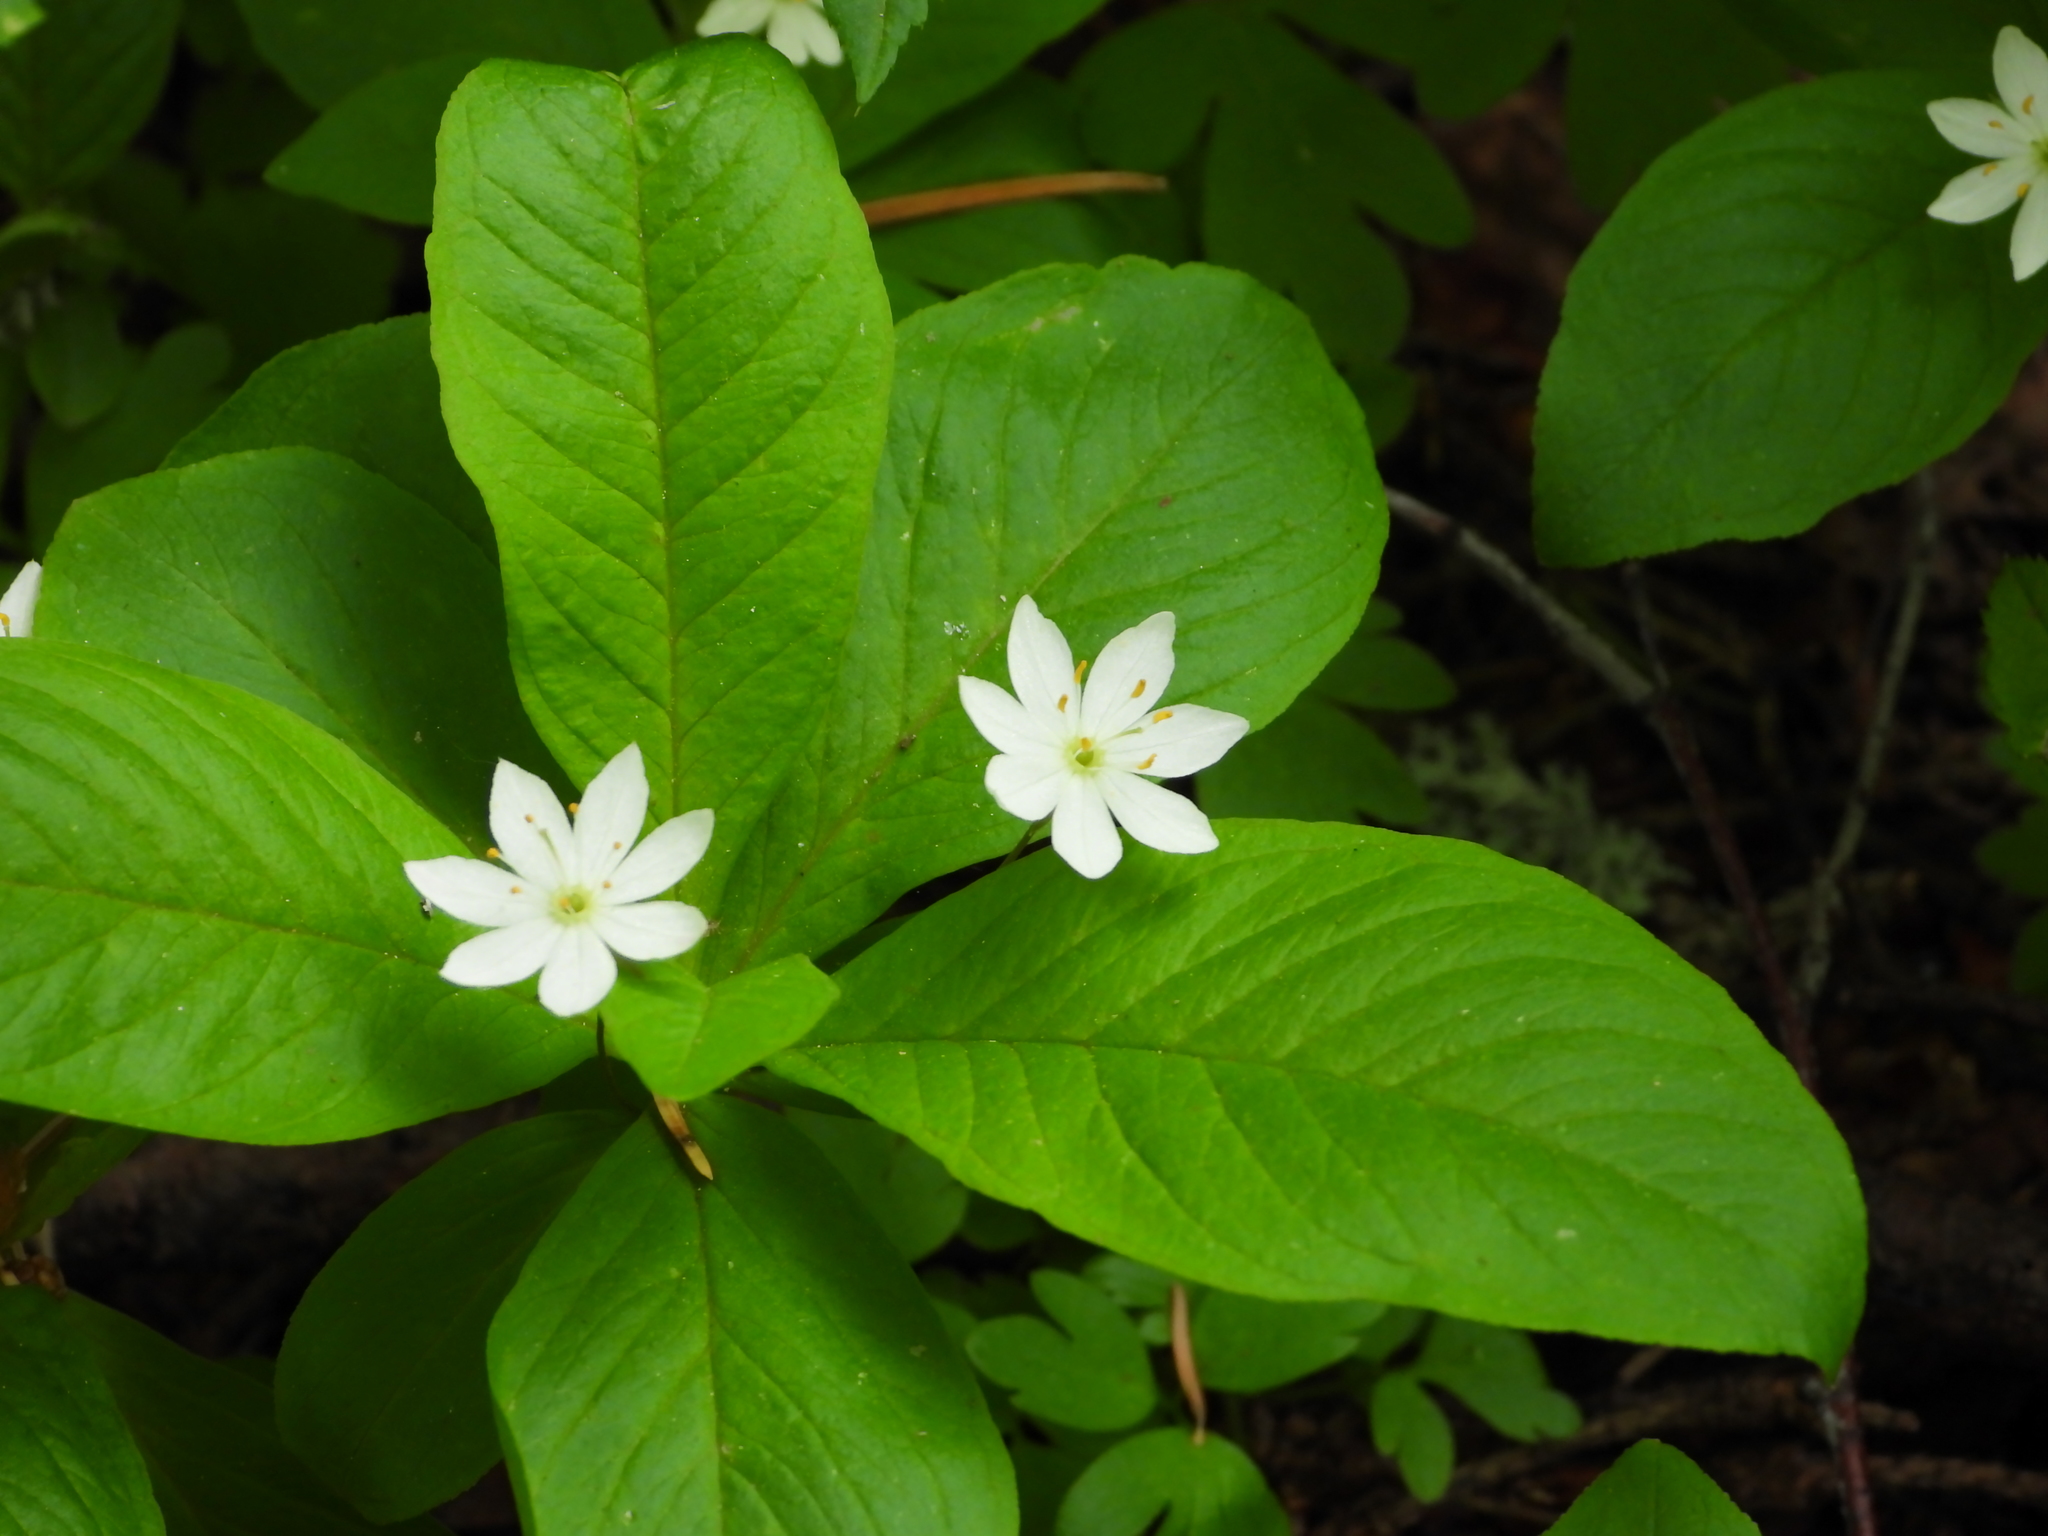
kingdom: Plantae
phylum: Tracheophyta
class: Magnoliopsida
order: Ericales
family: Primulaceae
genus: Lysimachia
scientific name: Lysimachia europaea
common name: Arctic starflower
